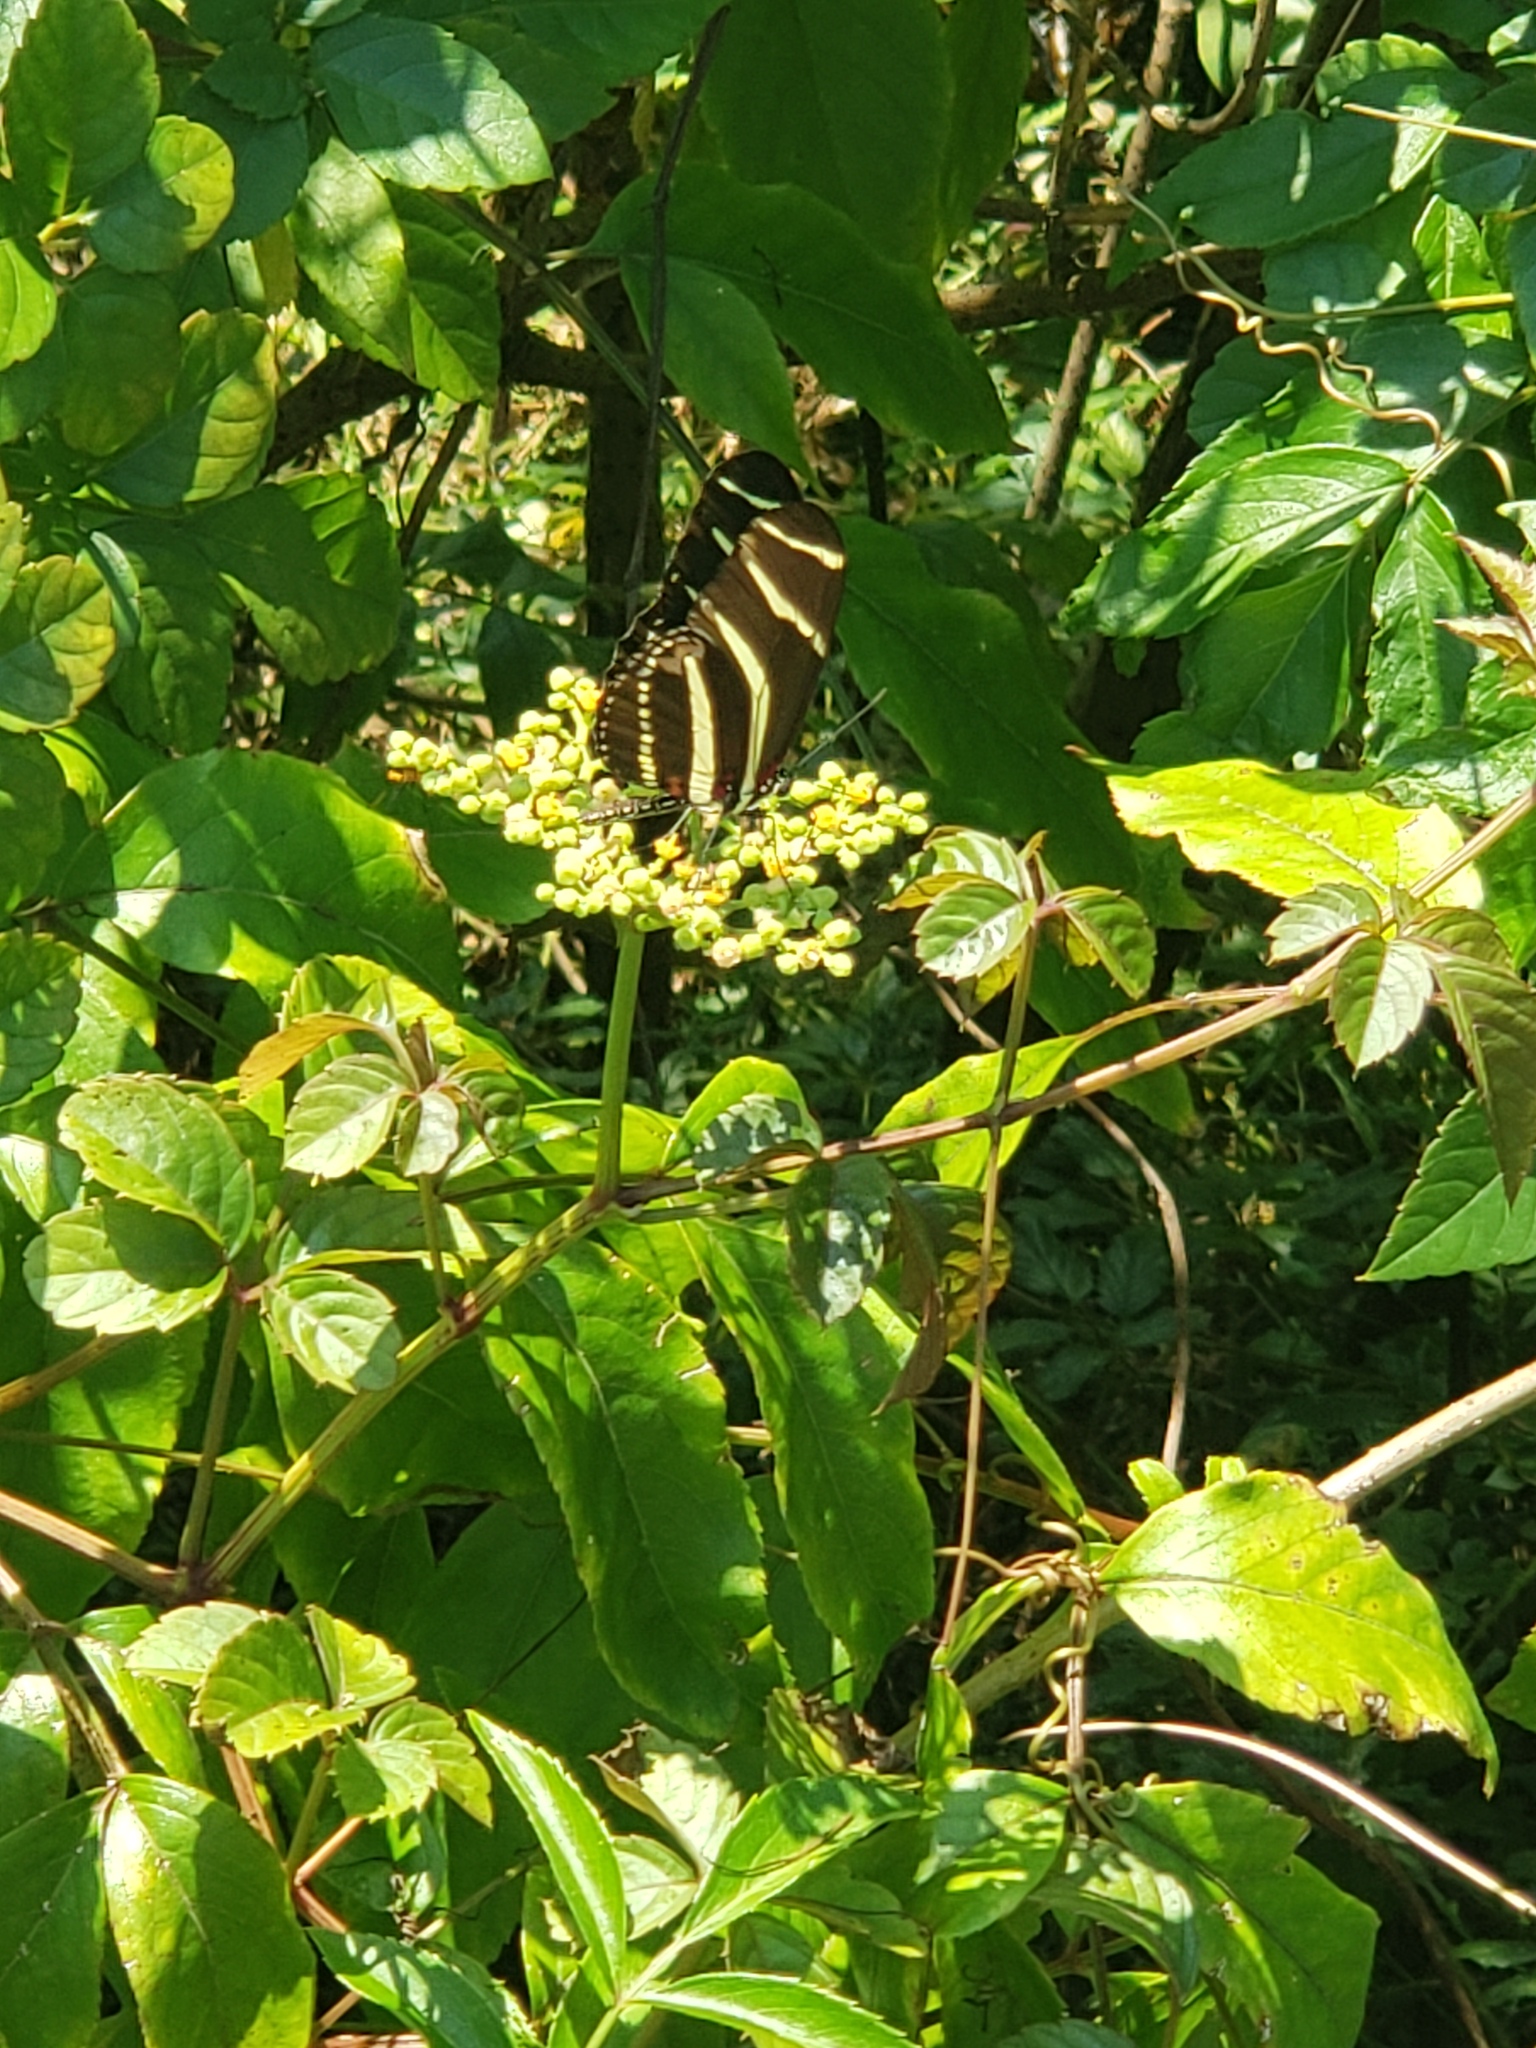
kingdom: Animalia
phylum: Arthropoda
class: Insecta
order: Lepidoptera
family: Nymphalidae
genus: Heliconius
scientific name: Heliconius charithonia
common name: Zebra long wing
